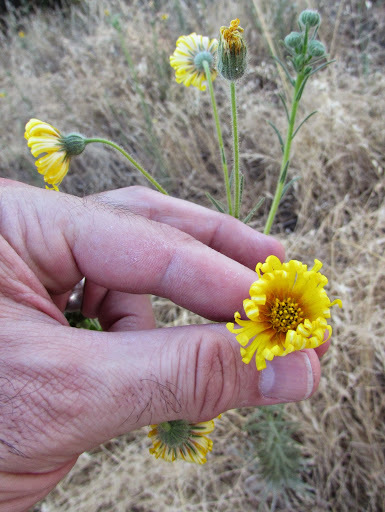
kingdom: Plantae
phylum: Tracheophyta
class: Magnoliopsida
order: Asterales
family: Asteraceae
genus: Madia
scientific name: Madia elegans
